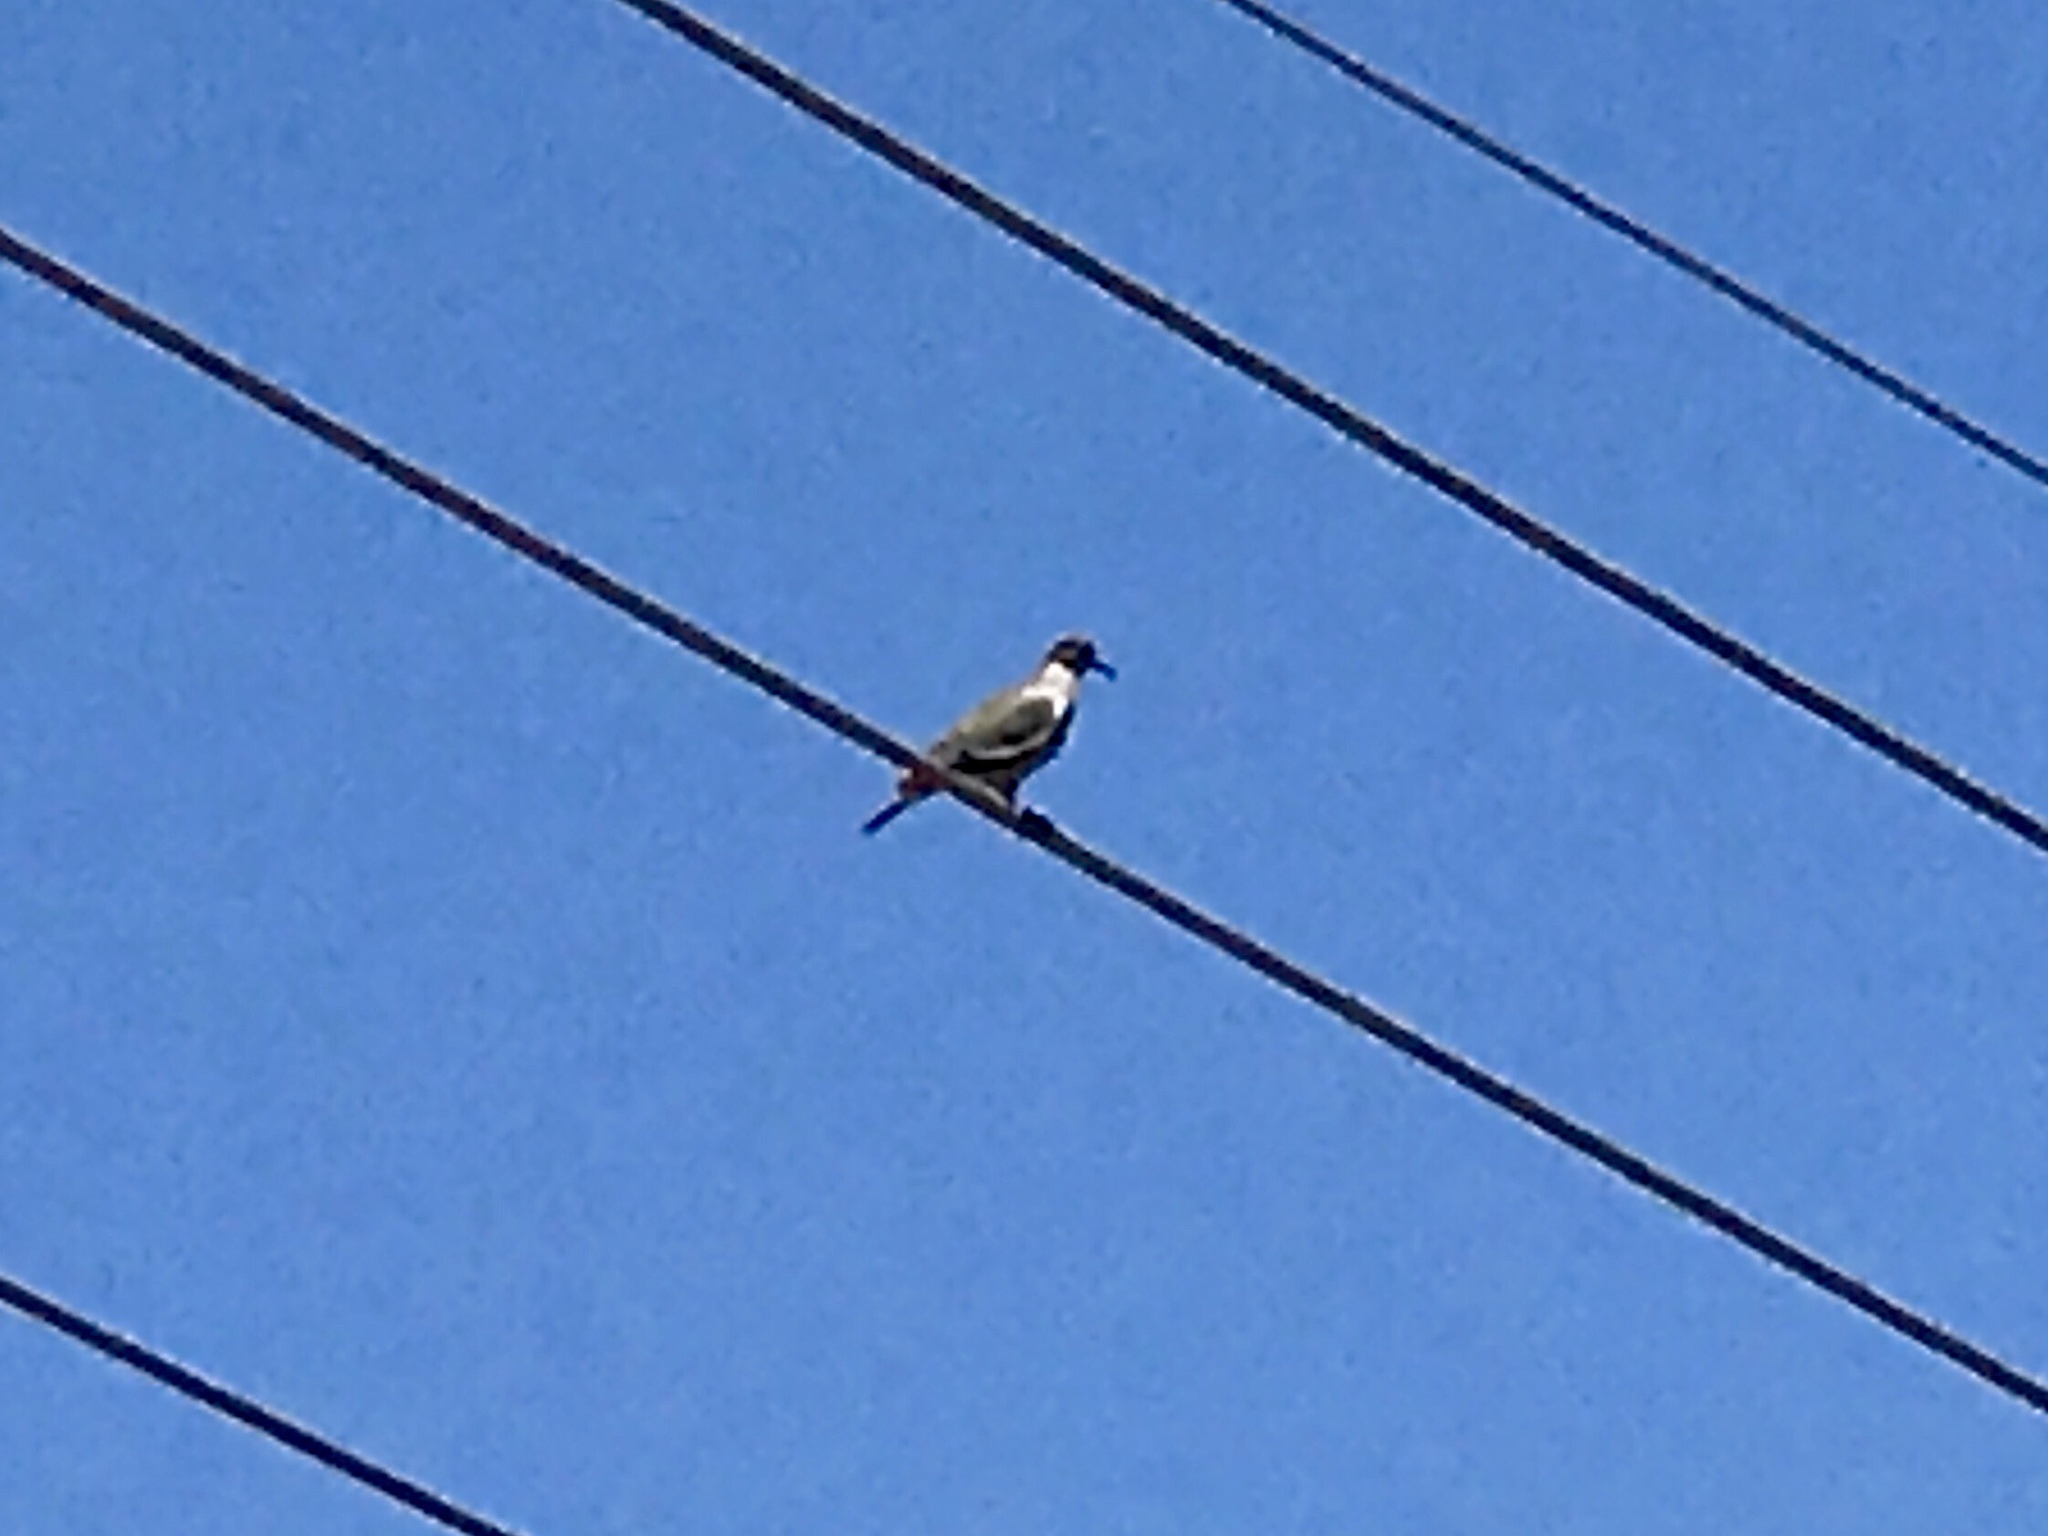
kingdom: Animalia
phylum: Chordata
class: Aves
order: Columbiformes
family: Columbidae
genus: Zenaida
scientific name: Zenaida asiatica
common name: White-winged dove
